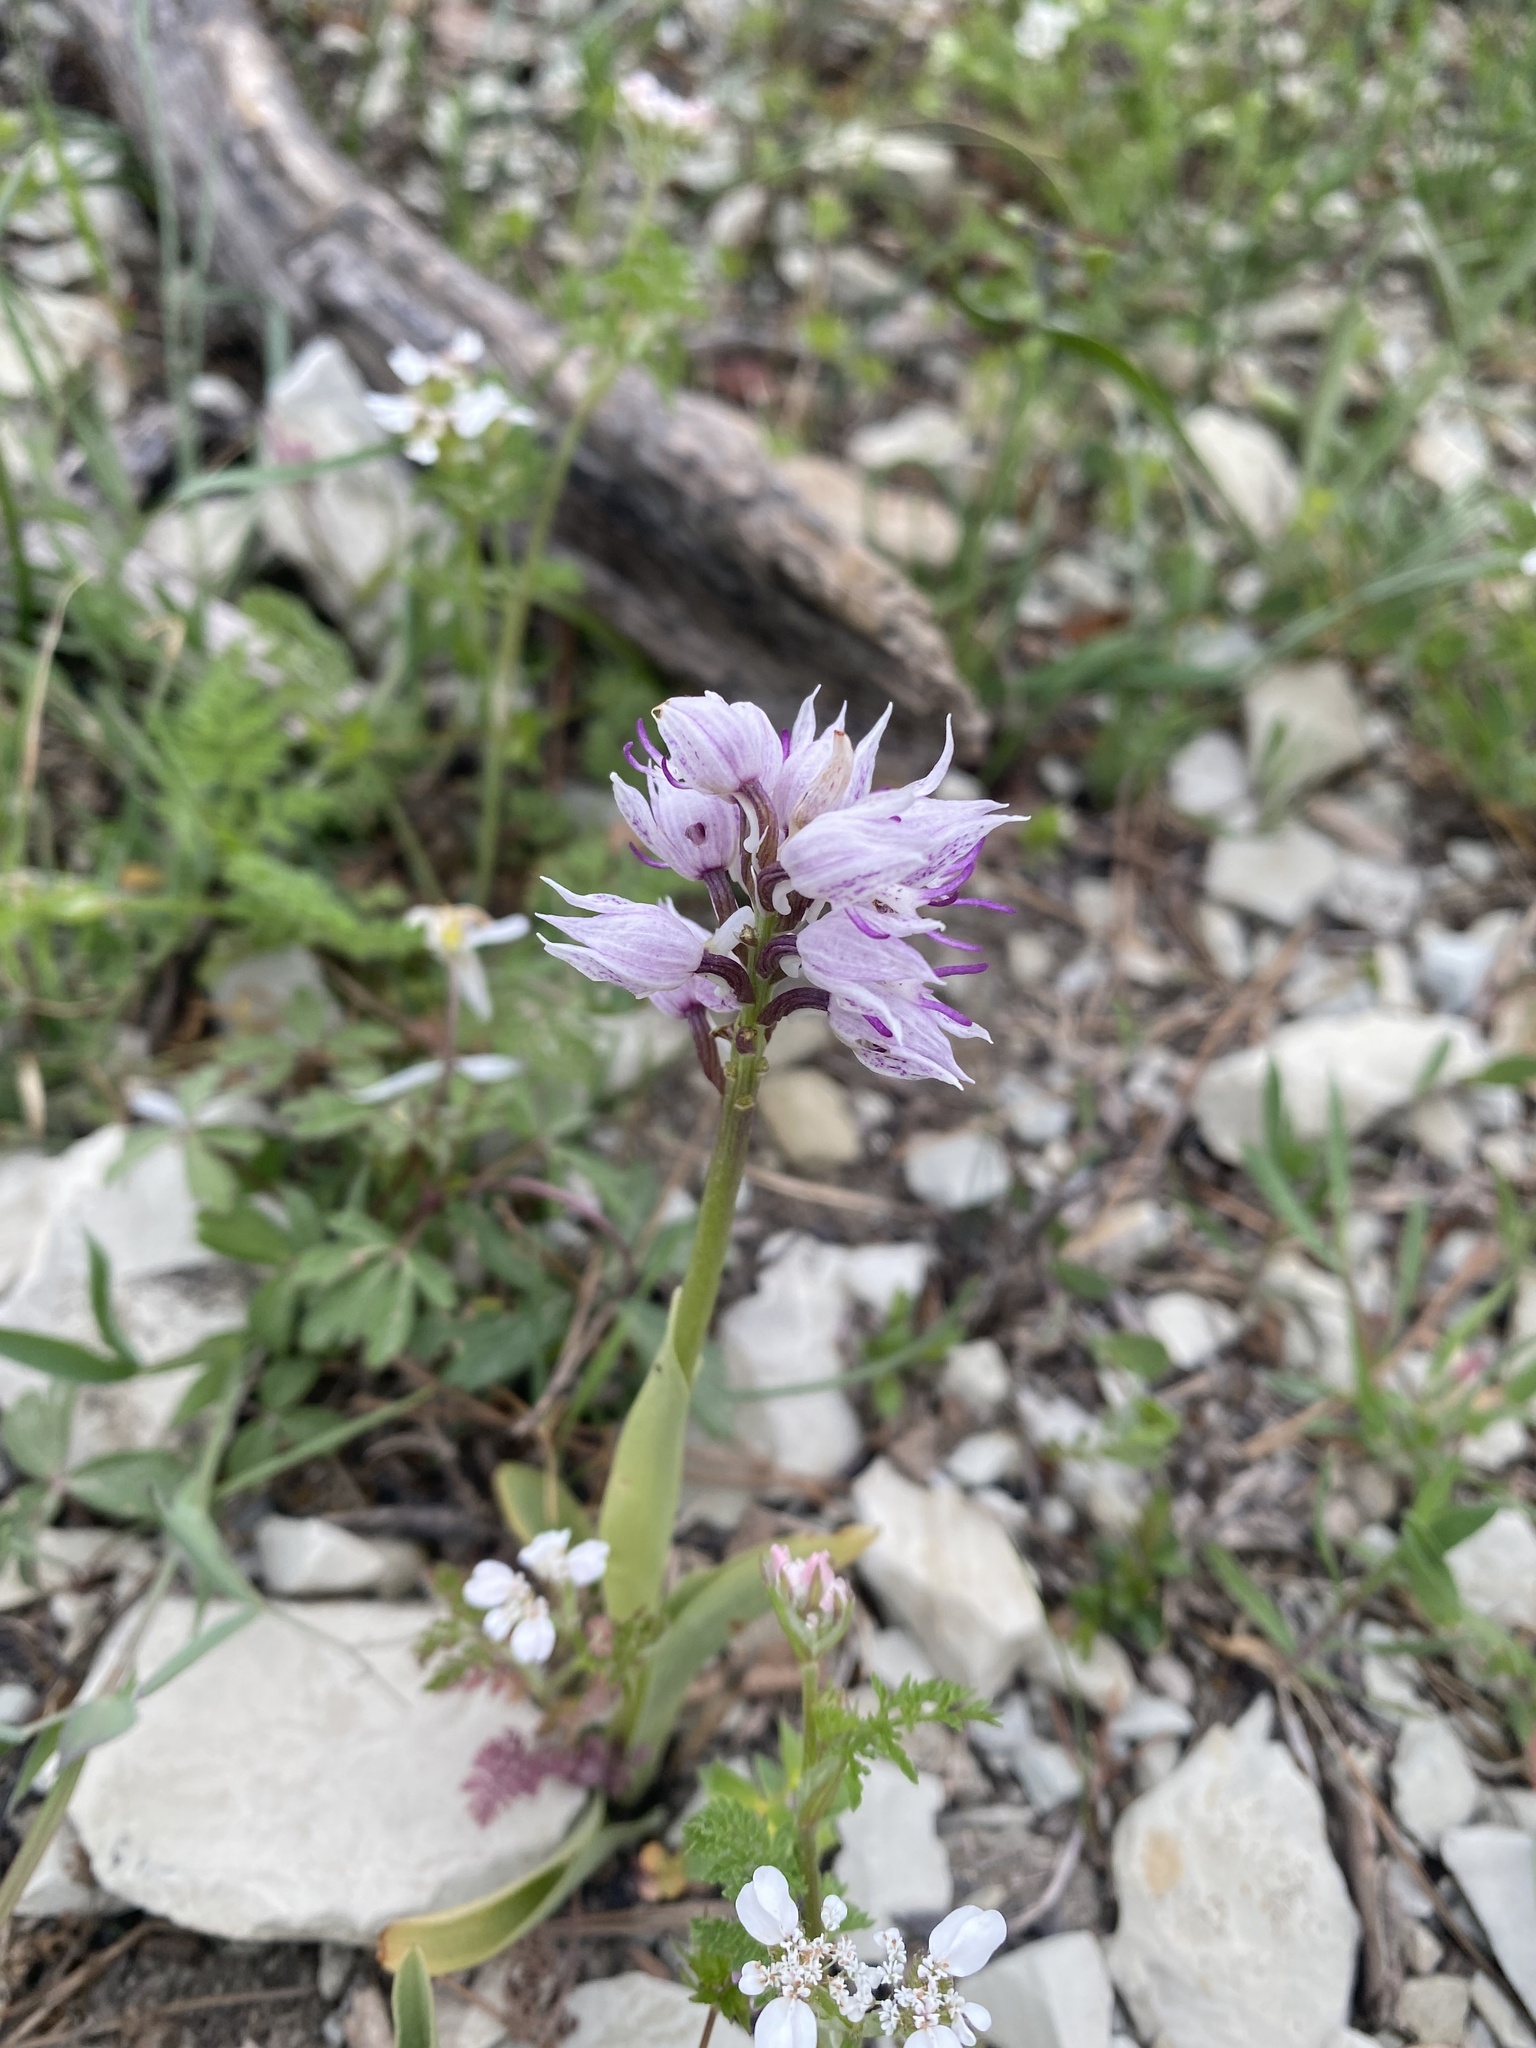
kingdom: Plantae
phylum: Tracheophyta
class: Liliopsida
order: Asparagales
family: Orchidaceae
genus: Orchis
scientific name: Orchis simia
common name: Monkey orchid
